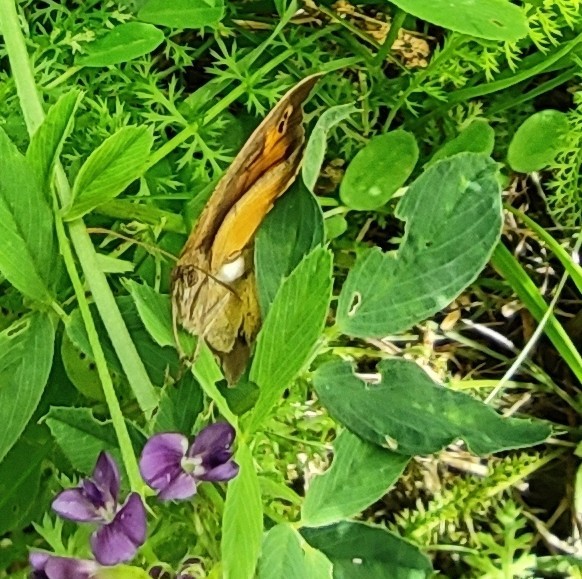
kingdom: Animalia
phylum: Arthropoda
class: Insecta
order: Lepidoptera
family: Nymphalidae
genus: Maniola
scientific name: Maniola jurtina
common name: Meadow brown
